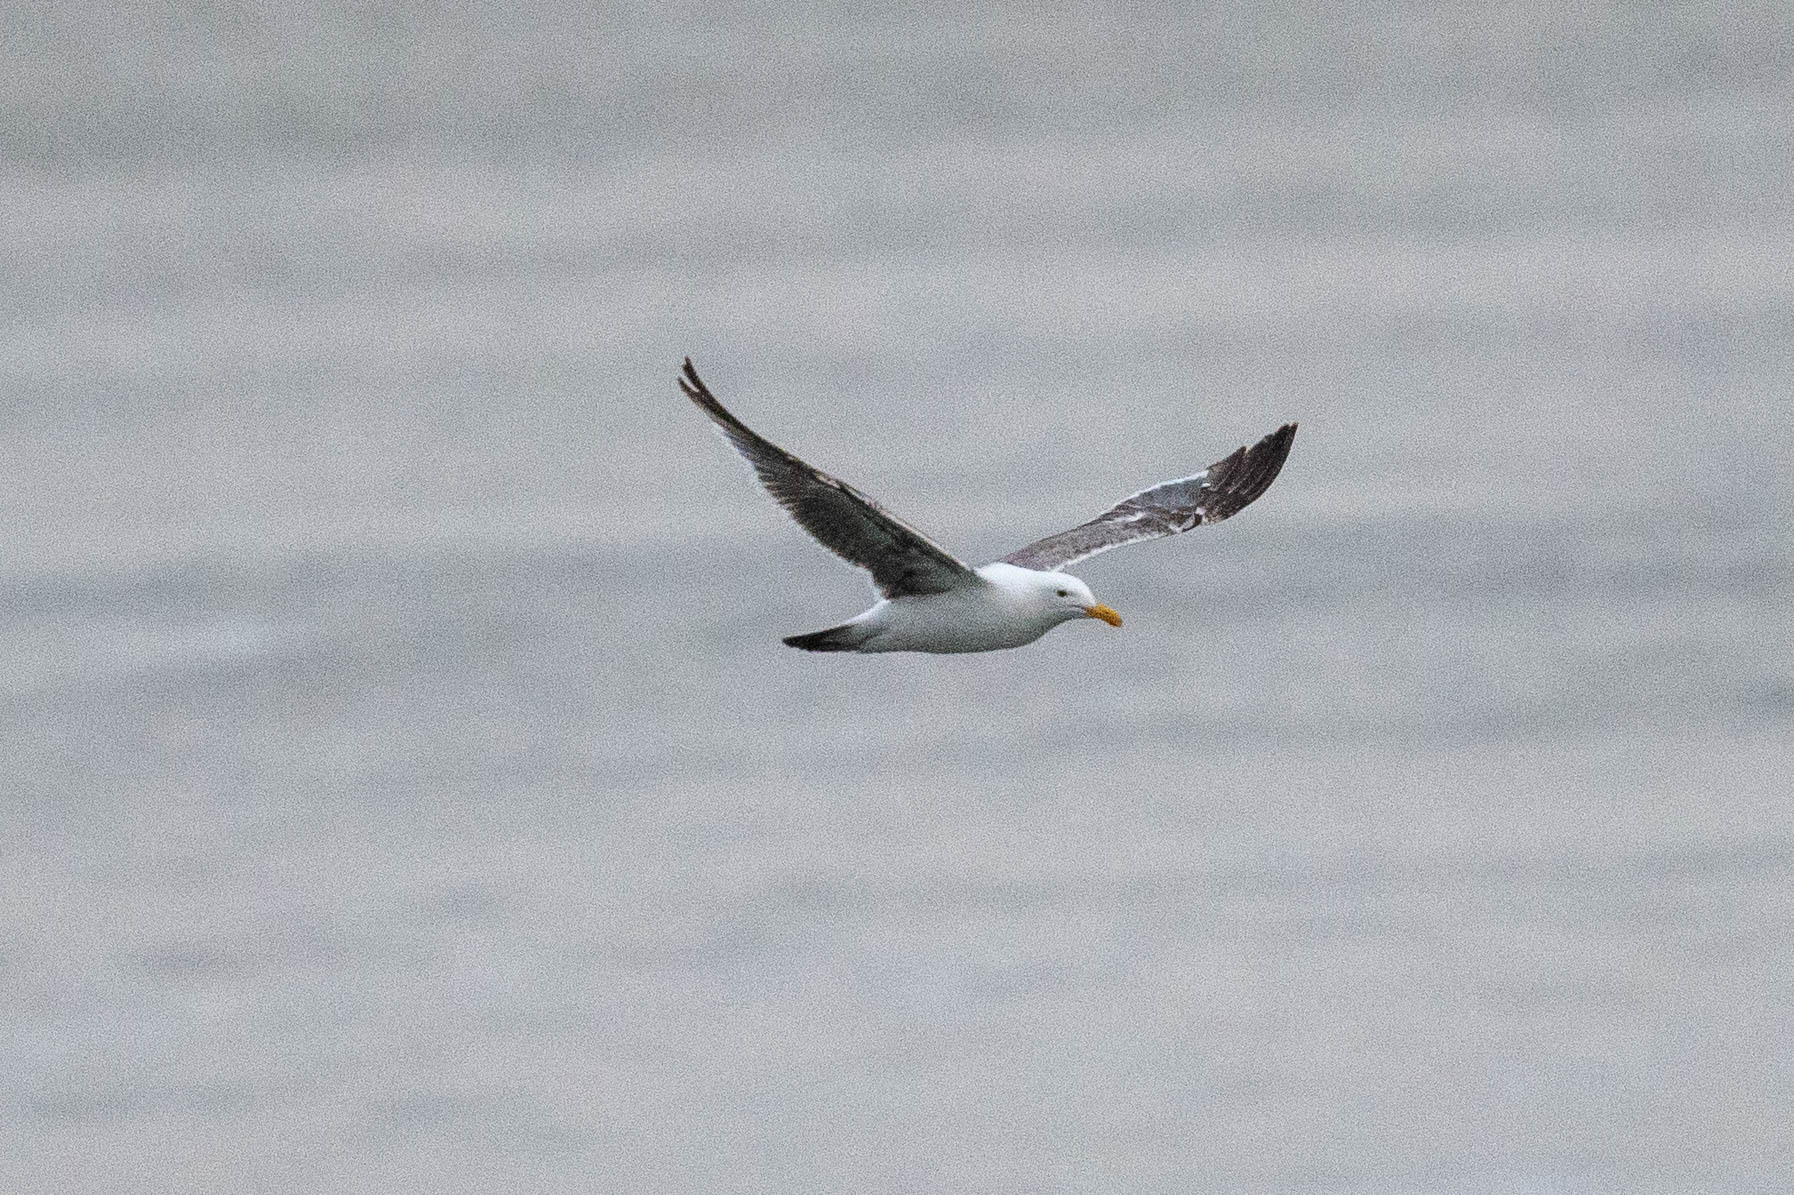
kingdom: Animalia
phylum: Chordata
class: Aves
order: Charadriiformes
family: Laridae
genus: Larus
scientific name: Larus occidentalis
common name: Western gull
